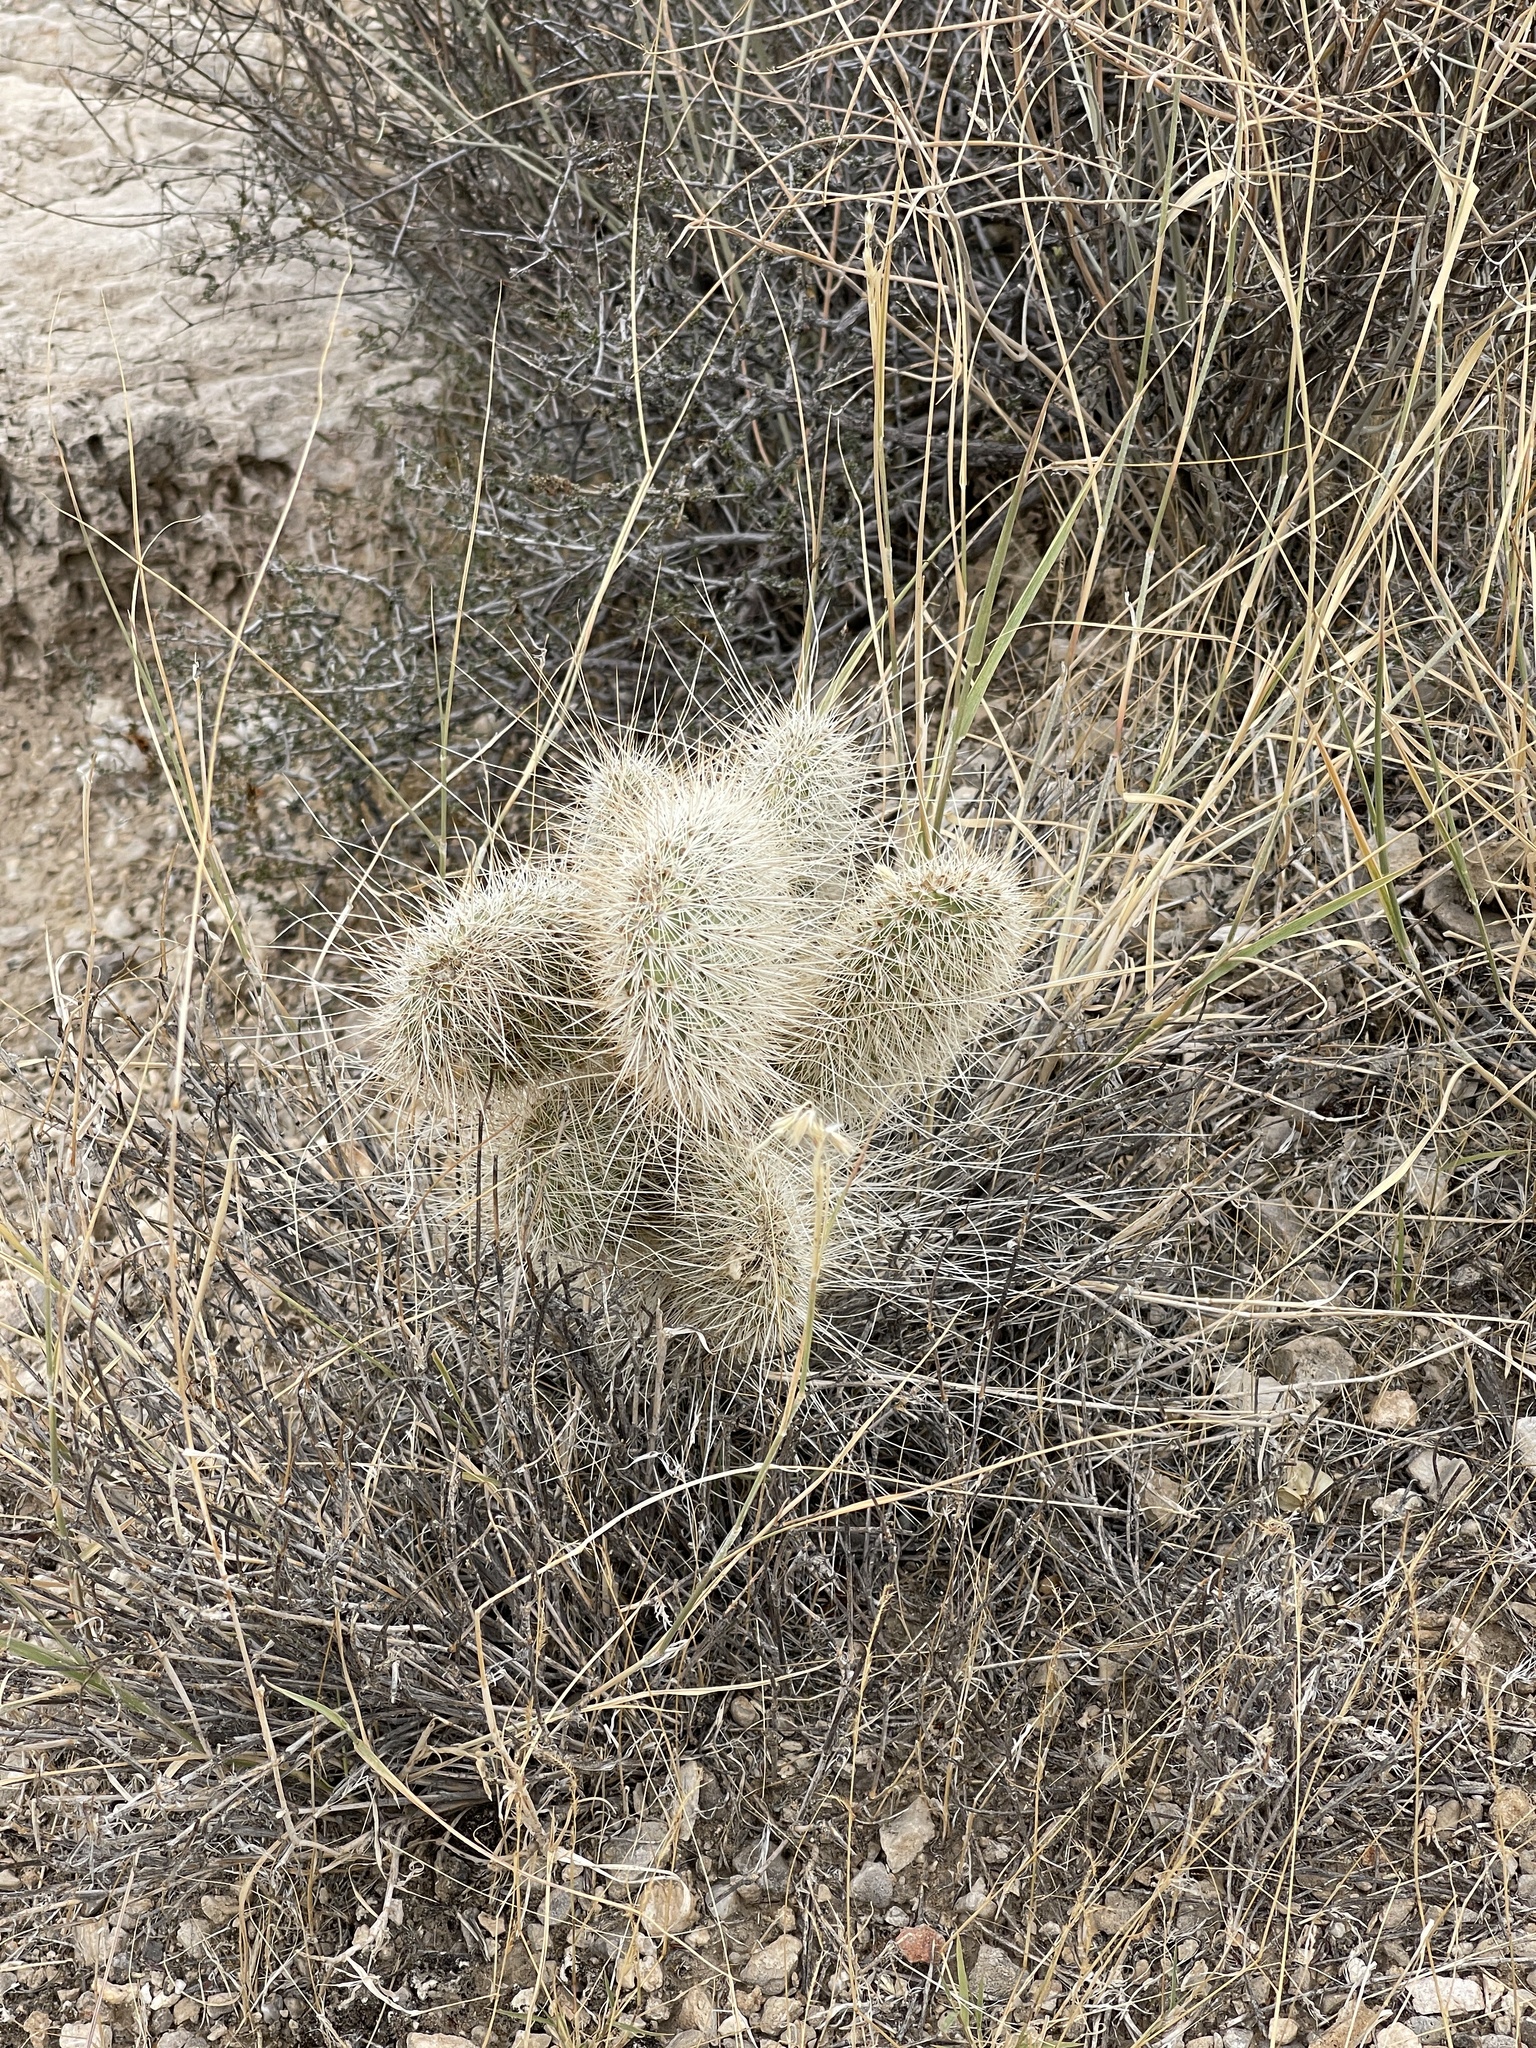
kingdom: Plantae
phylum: Tracheophyta
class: Magnoliopsida
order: Caryophyllales
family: Cactaceae
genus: Opuntia
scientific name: Opuntia polyacantha
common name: Plains prickly-pear
